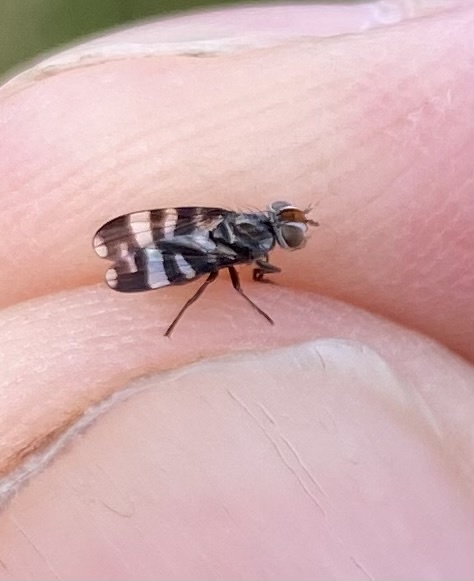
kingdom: Animalia
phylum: Arthropoda
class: Insecta
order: Diptera
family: Ulidiidae
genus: Herina
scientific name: Herina frondescentiae
